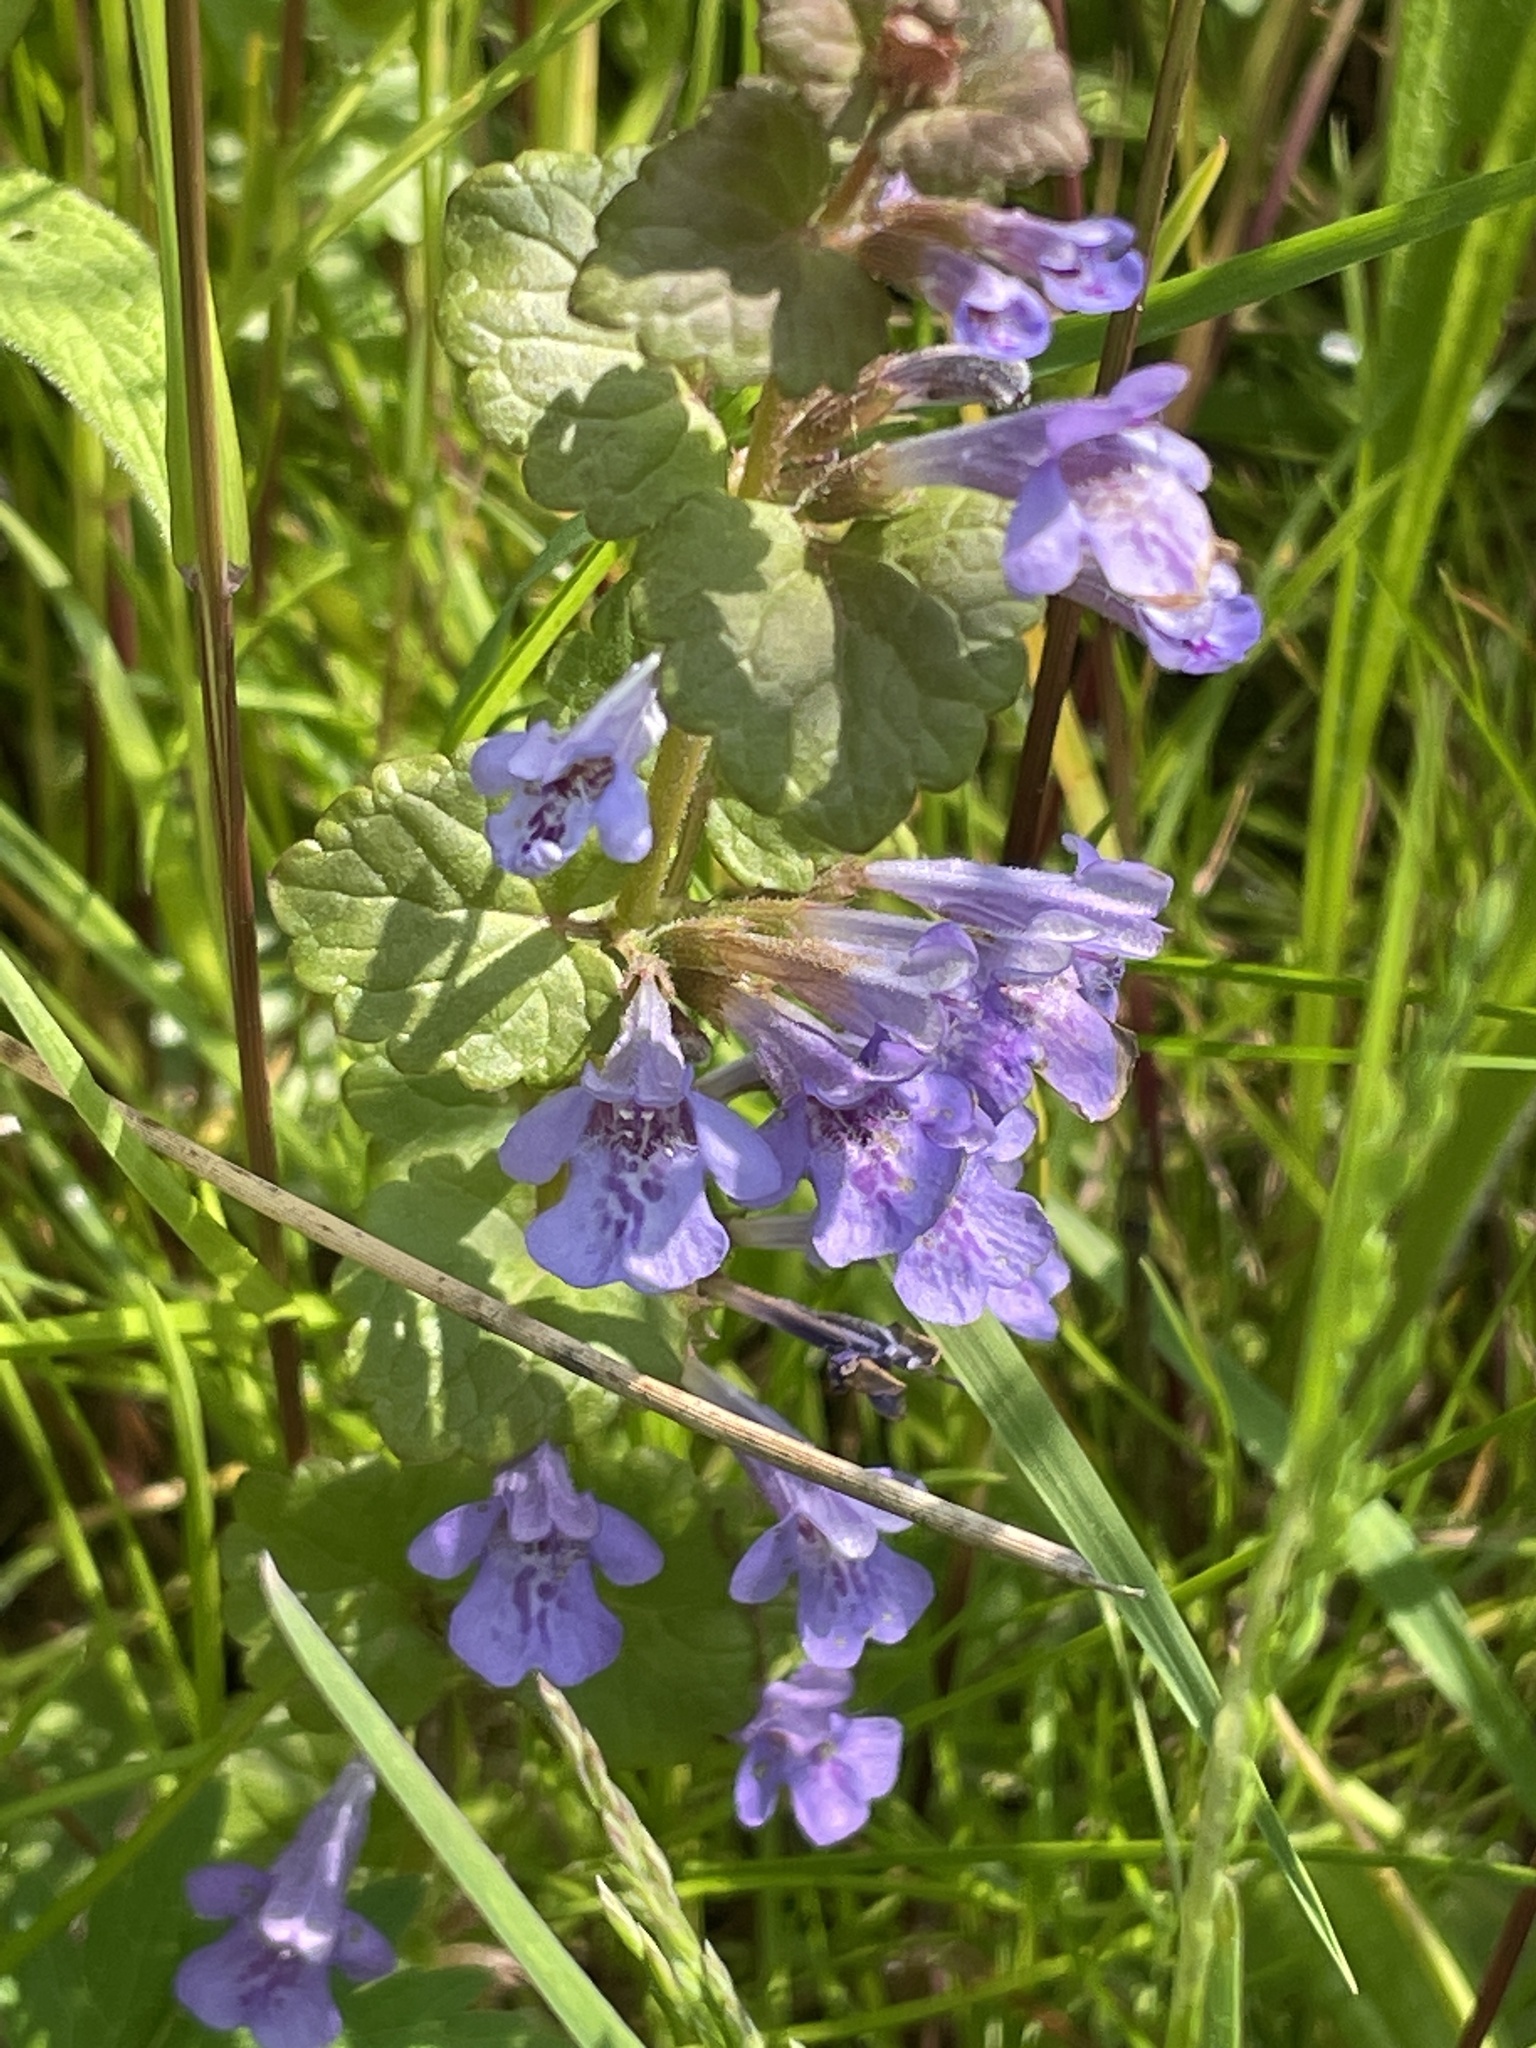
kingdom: Plantae
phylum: Tracheophyta
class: Magnoliopsida
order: Lamiales
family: Lamiaceae
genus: Glechoma
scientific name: Glechoma hederacea
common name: Ground ivy
